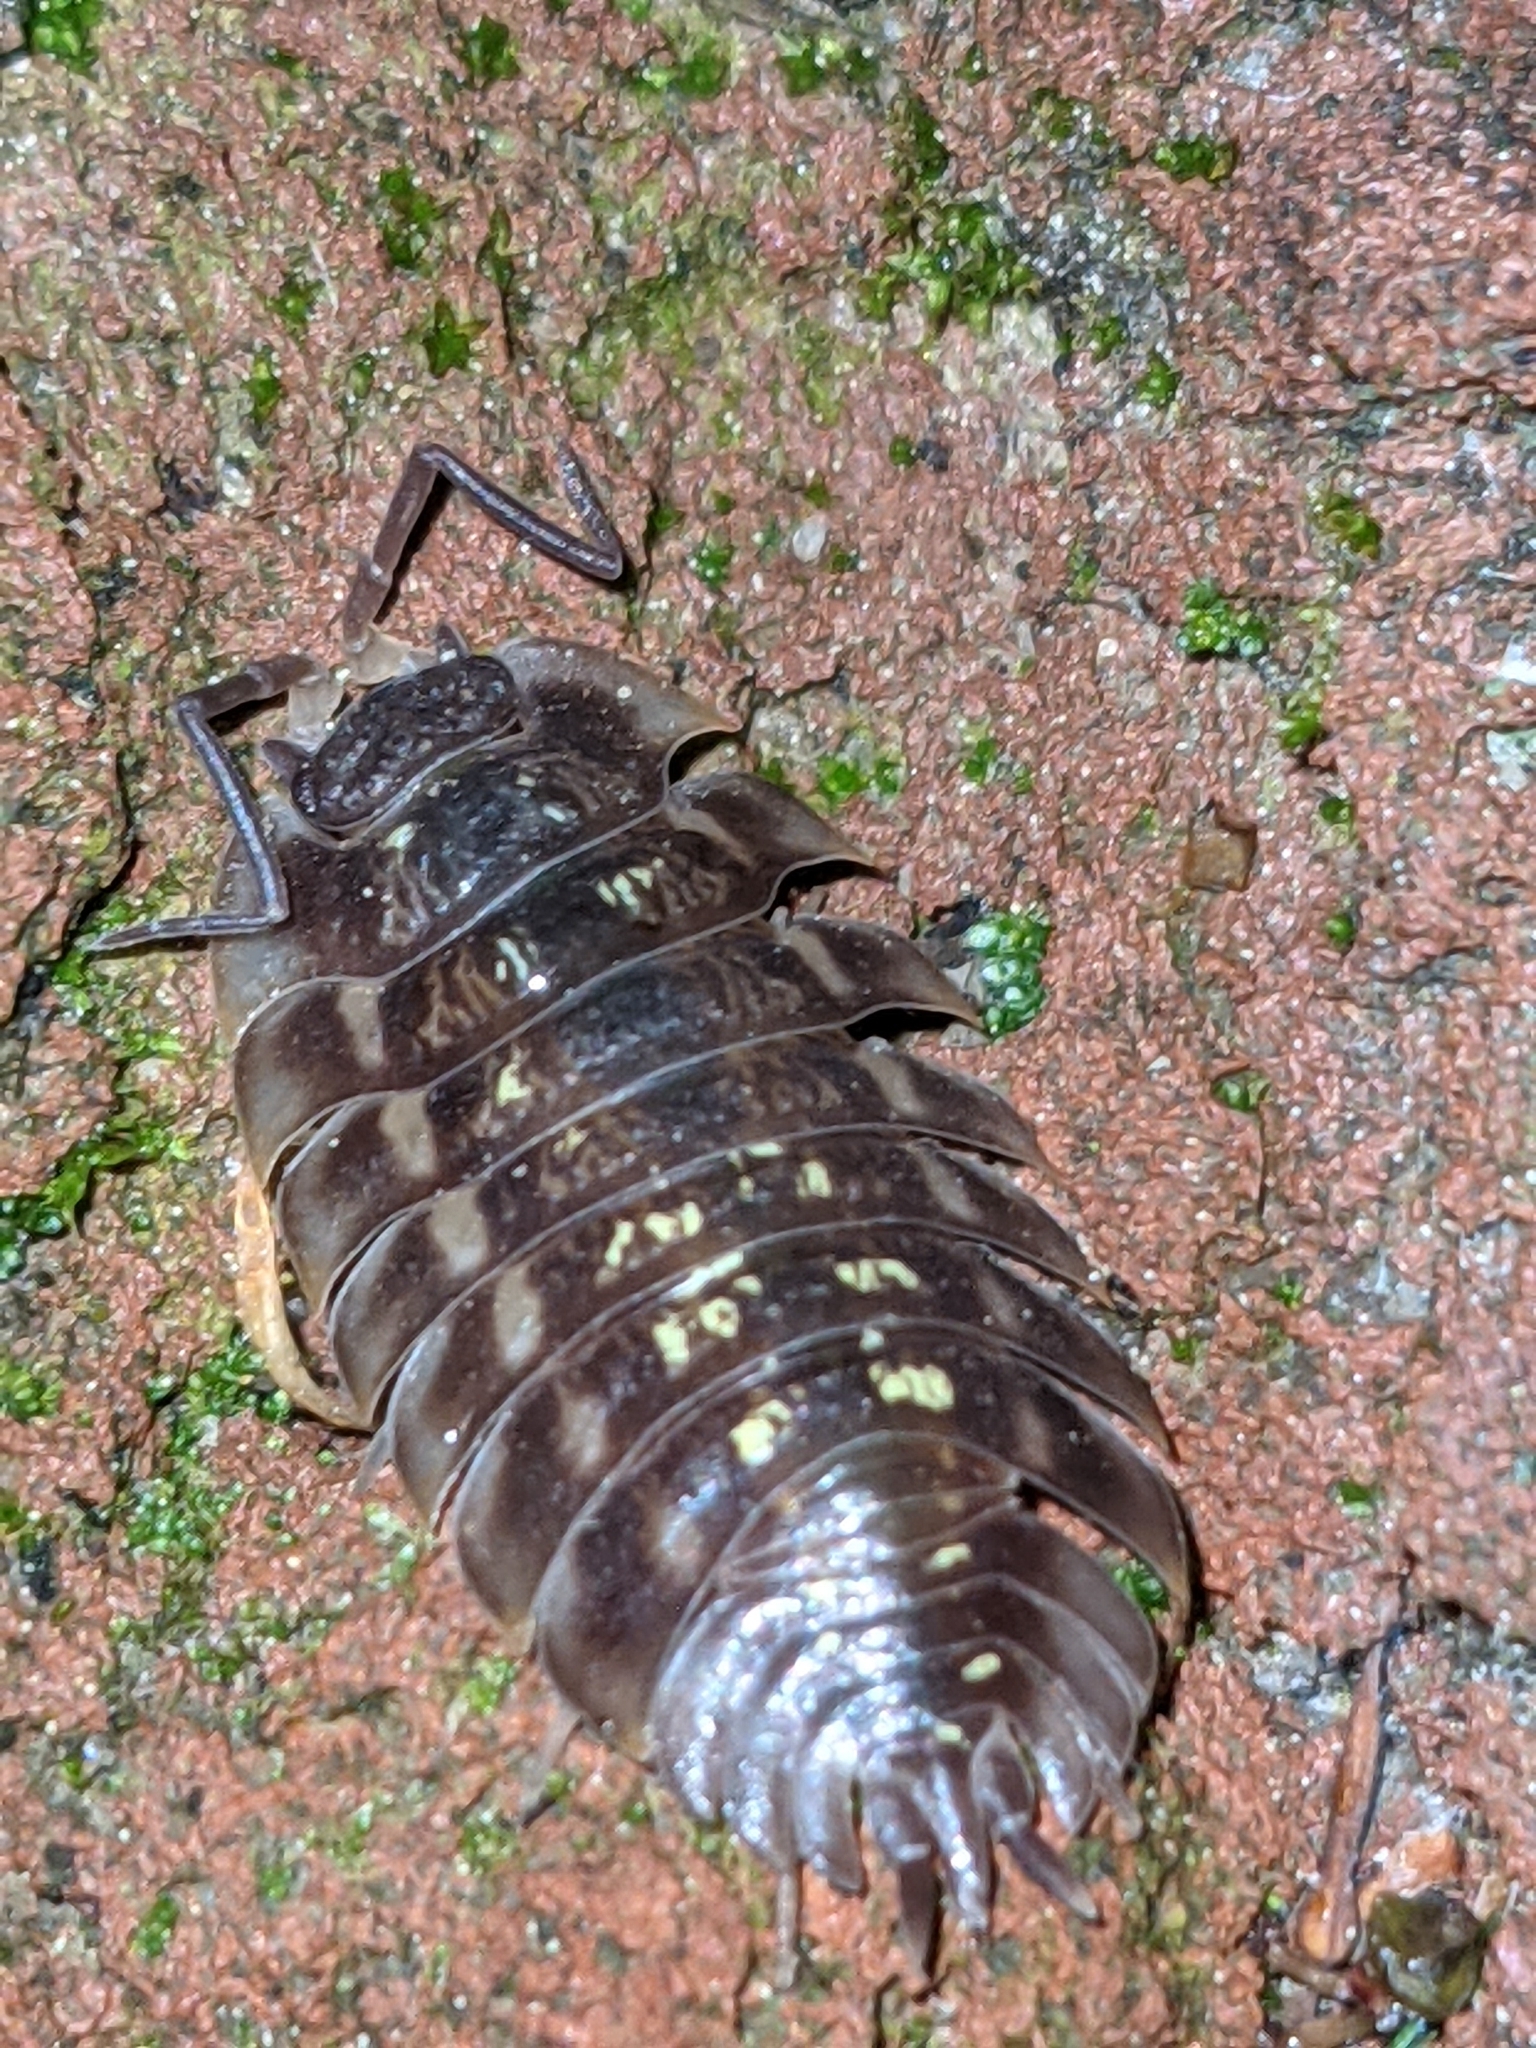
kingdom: Animalia
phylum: Arthropoda
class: Malacostraca
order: Isopoda
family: Oniscidae
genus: Oniscus
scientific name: Oniscus asellus
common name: Common shiny woodlouse
